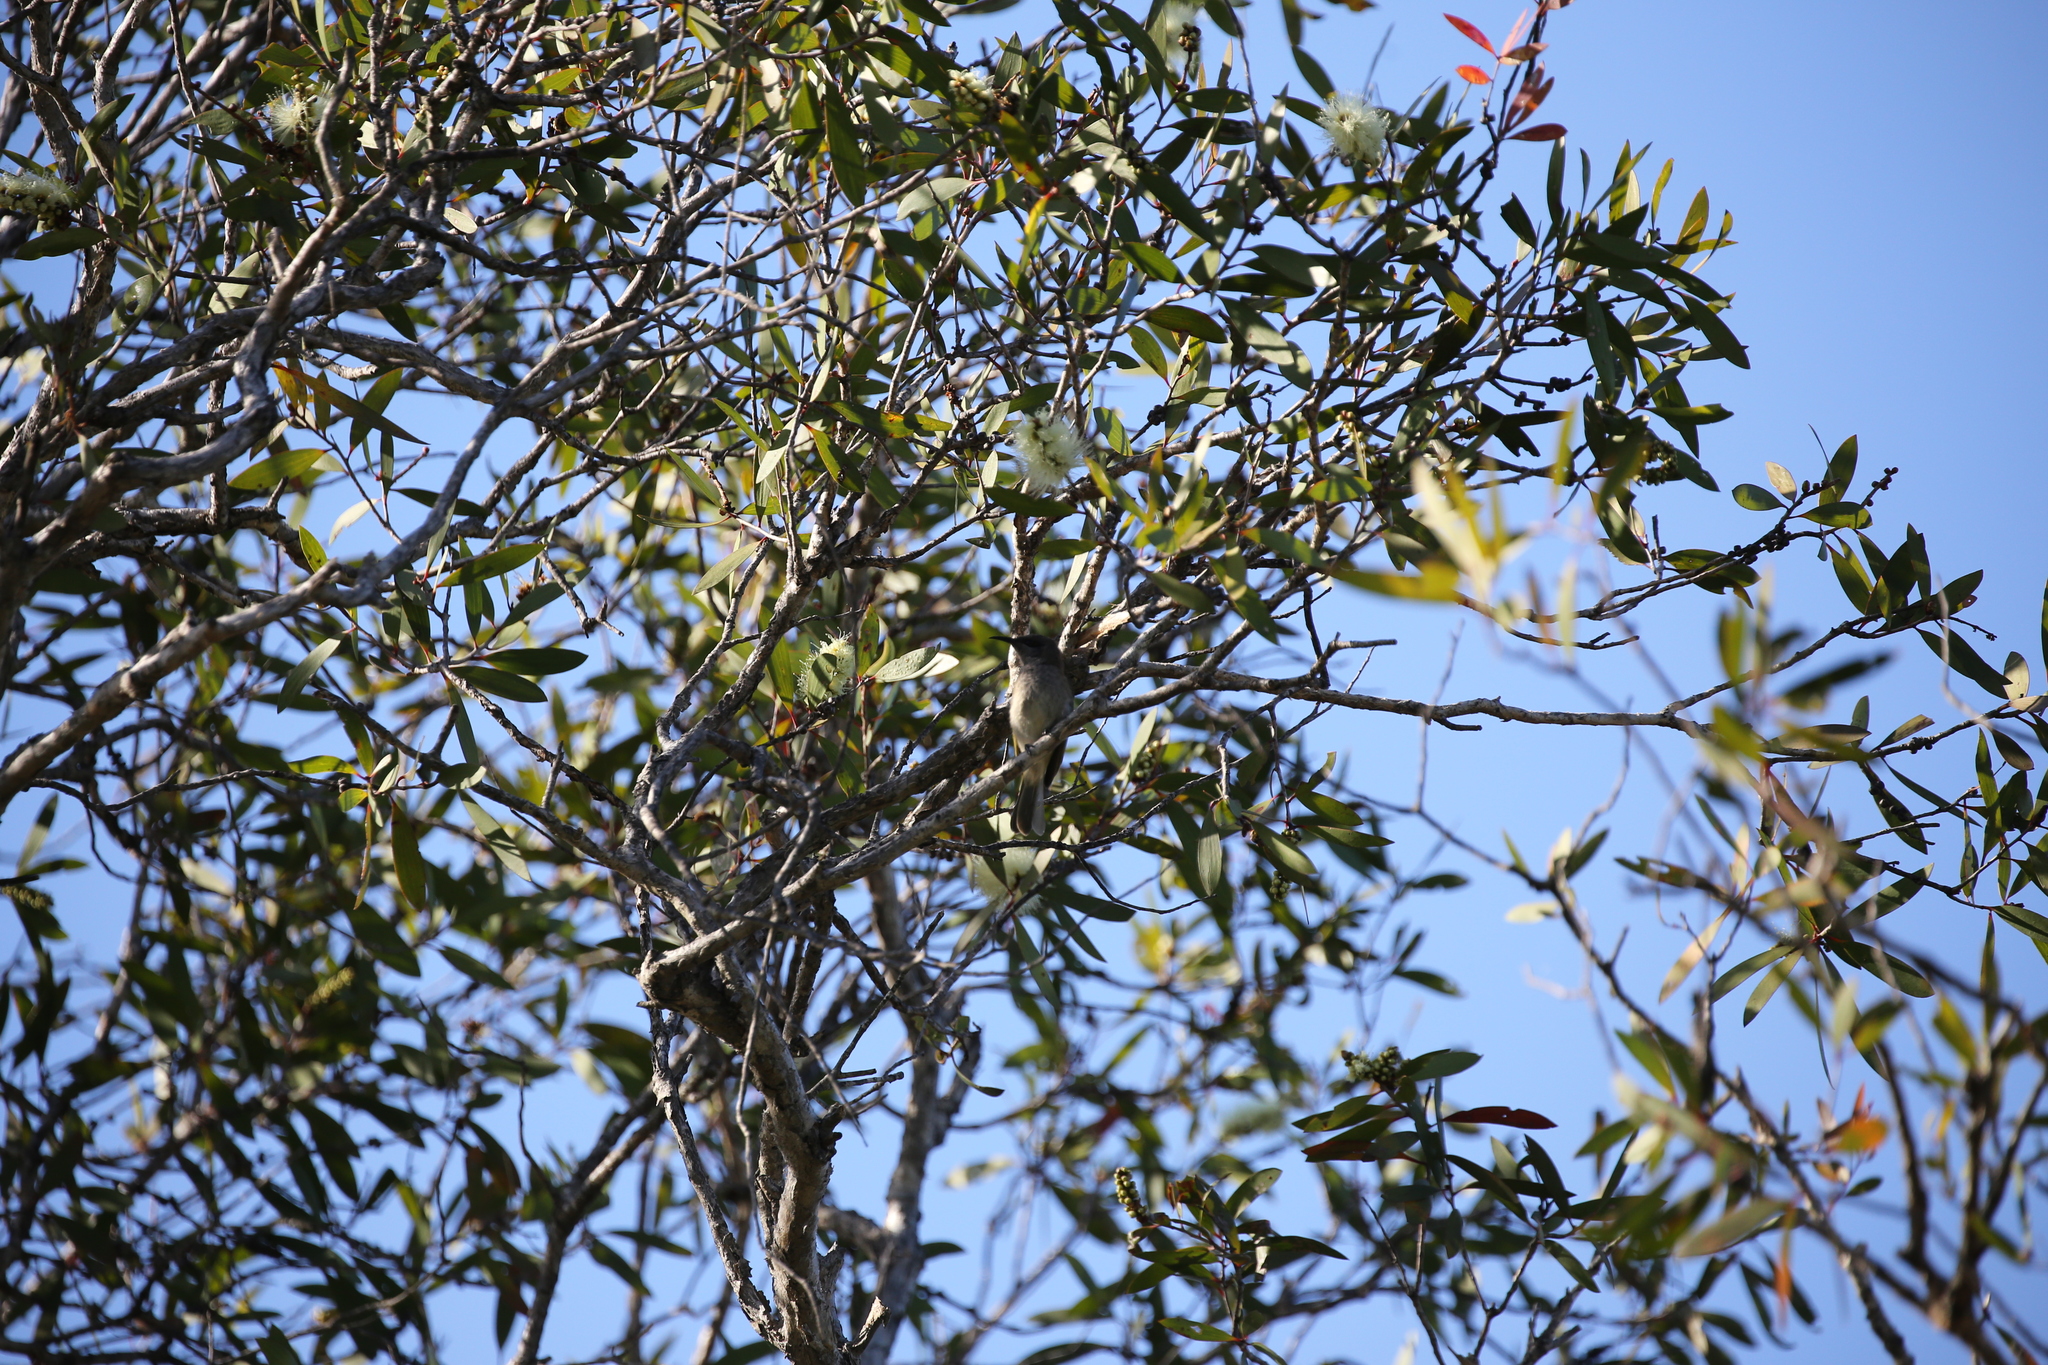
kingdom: Animalia
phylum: Chordata
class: Aves
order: Passeriformes
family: Meliphagidae
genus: Lichmera
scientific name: Lichmera indistincta
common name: Brown honeyeater
